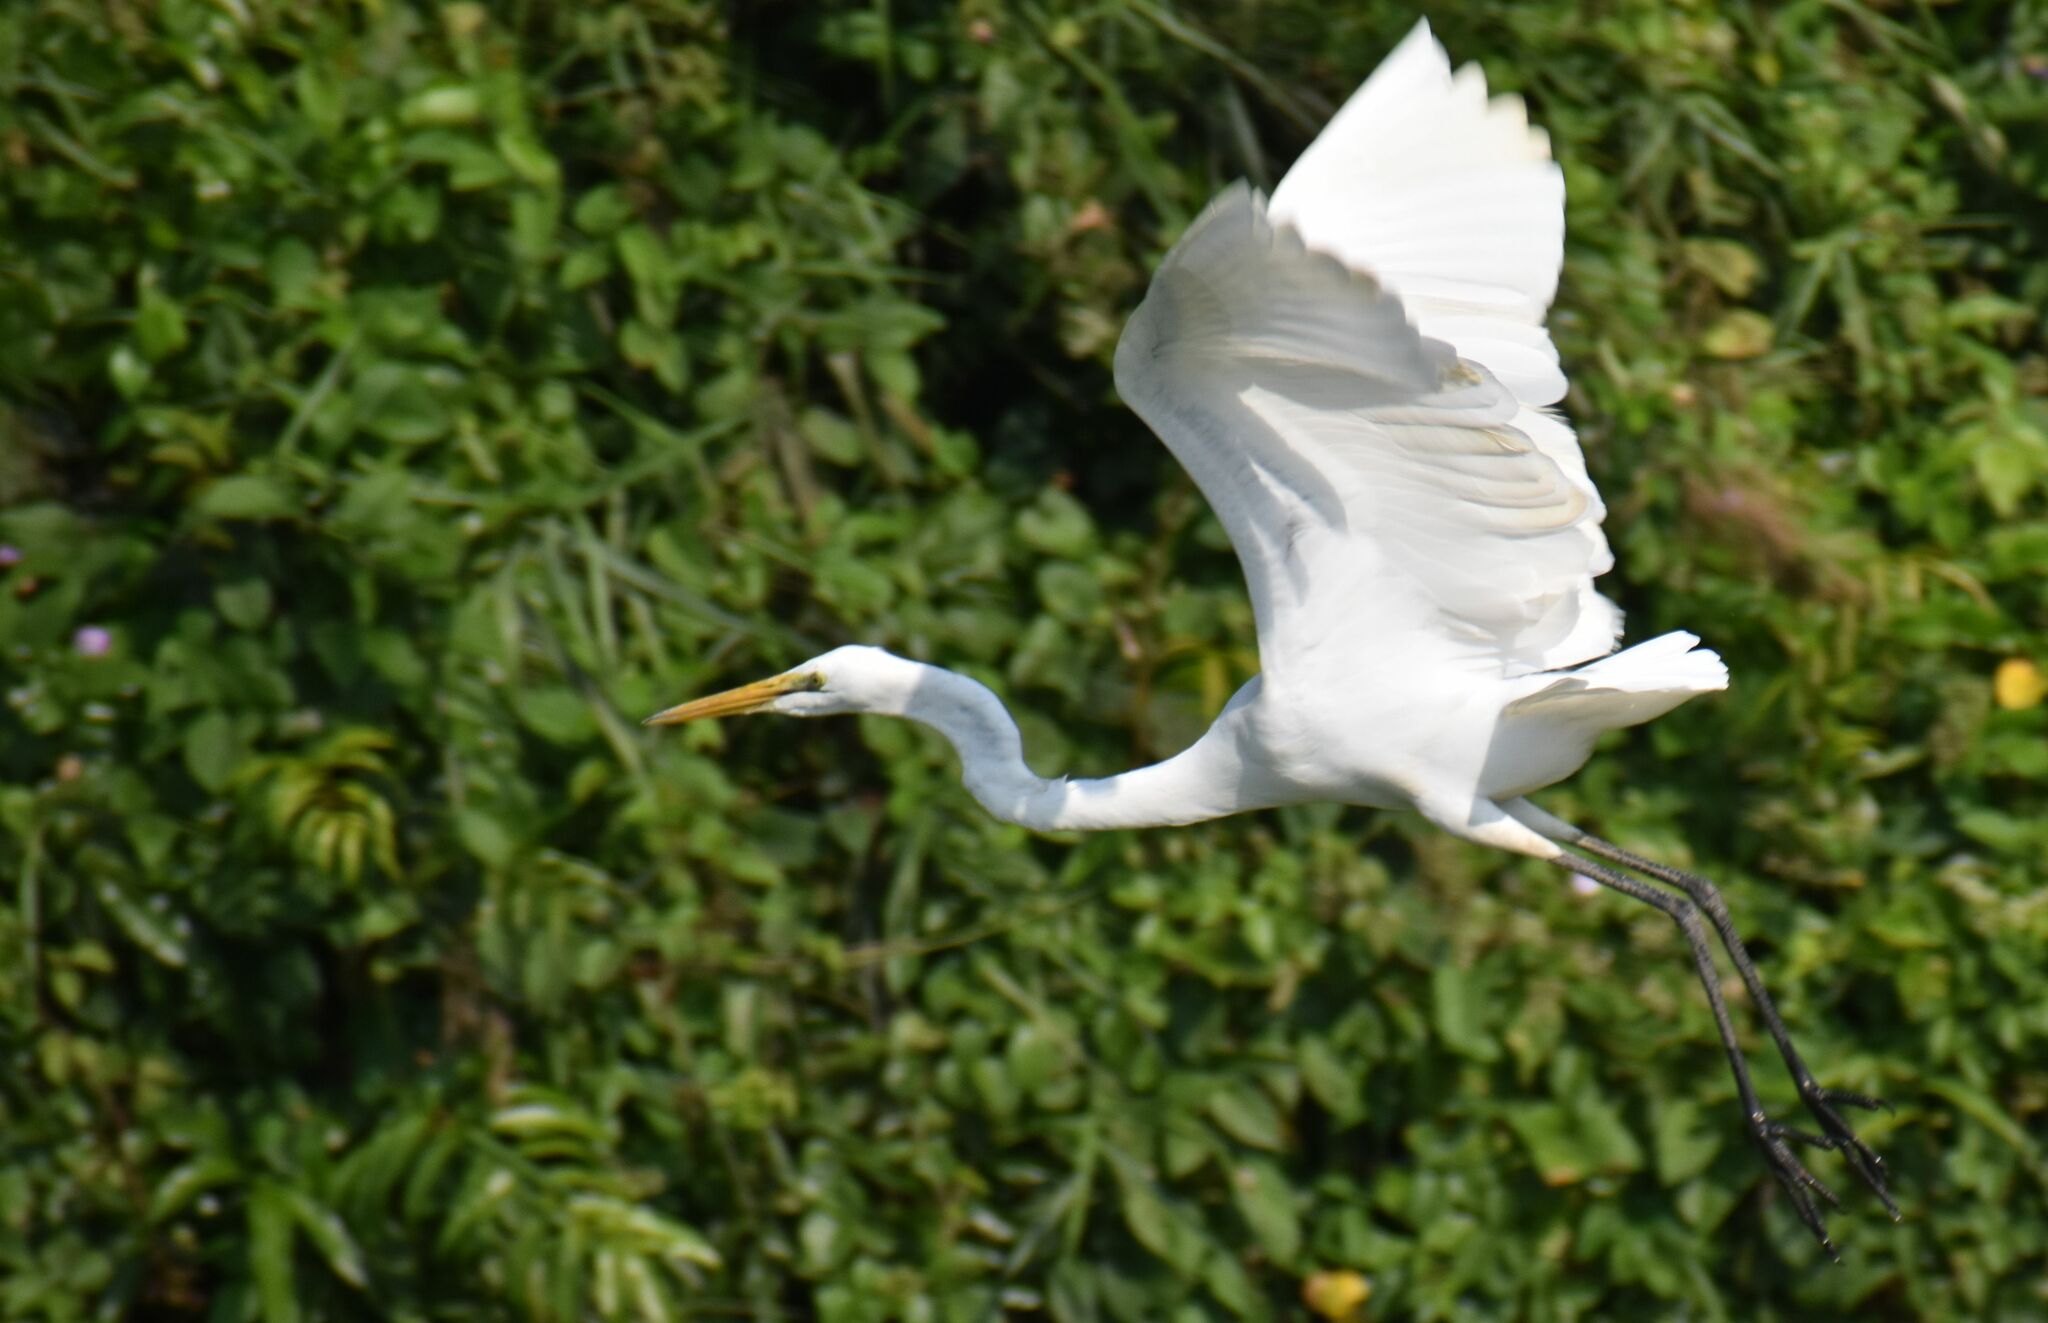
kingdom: Animalia
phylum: Chordata
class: Aves
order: Pelecaniformes
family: Ardeidae
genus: Ardea
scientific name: Ardea alba
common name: Great egret
